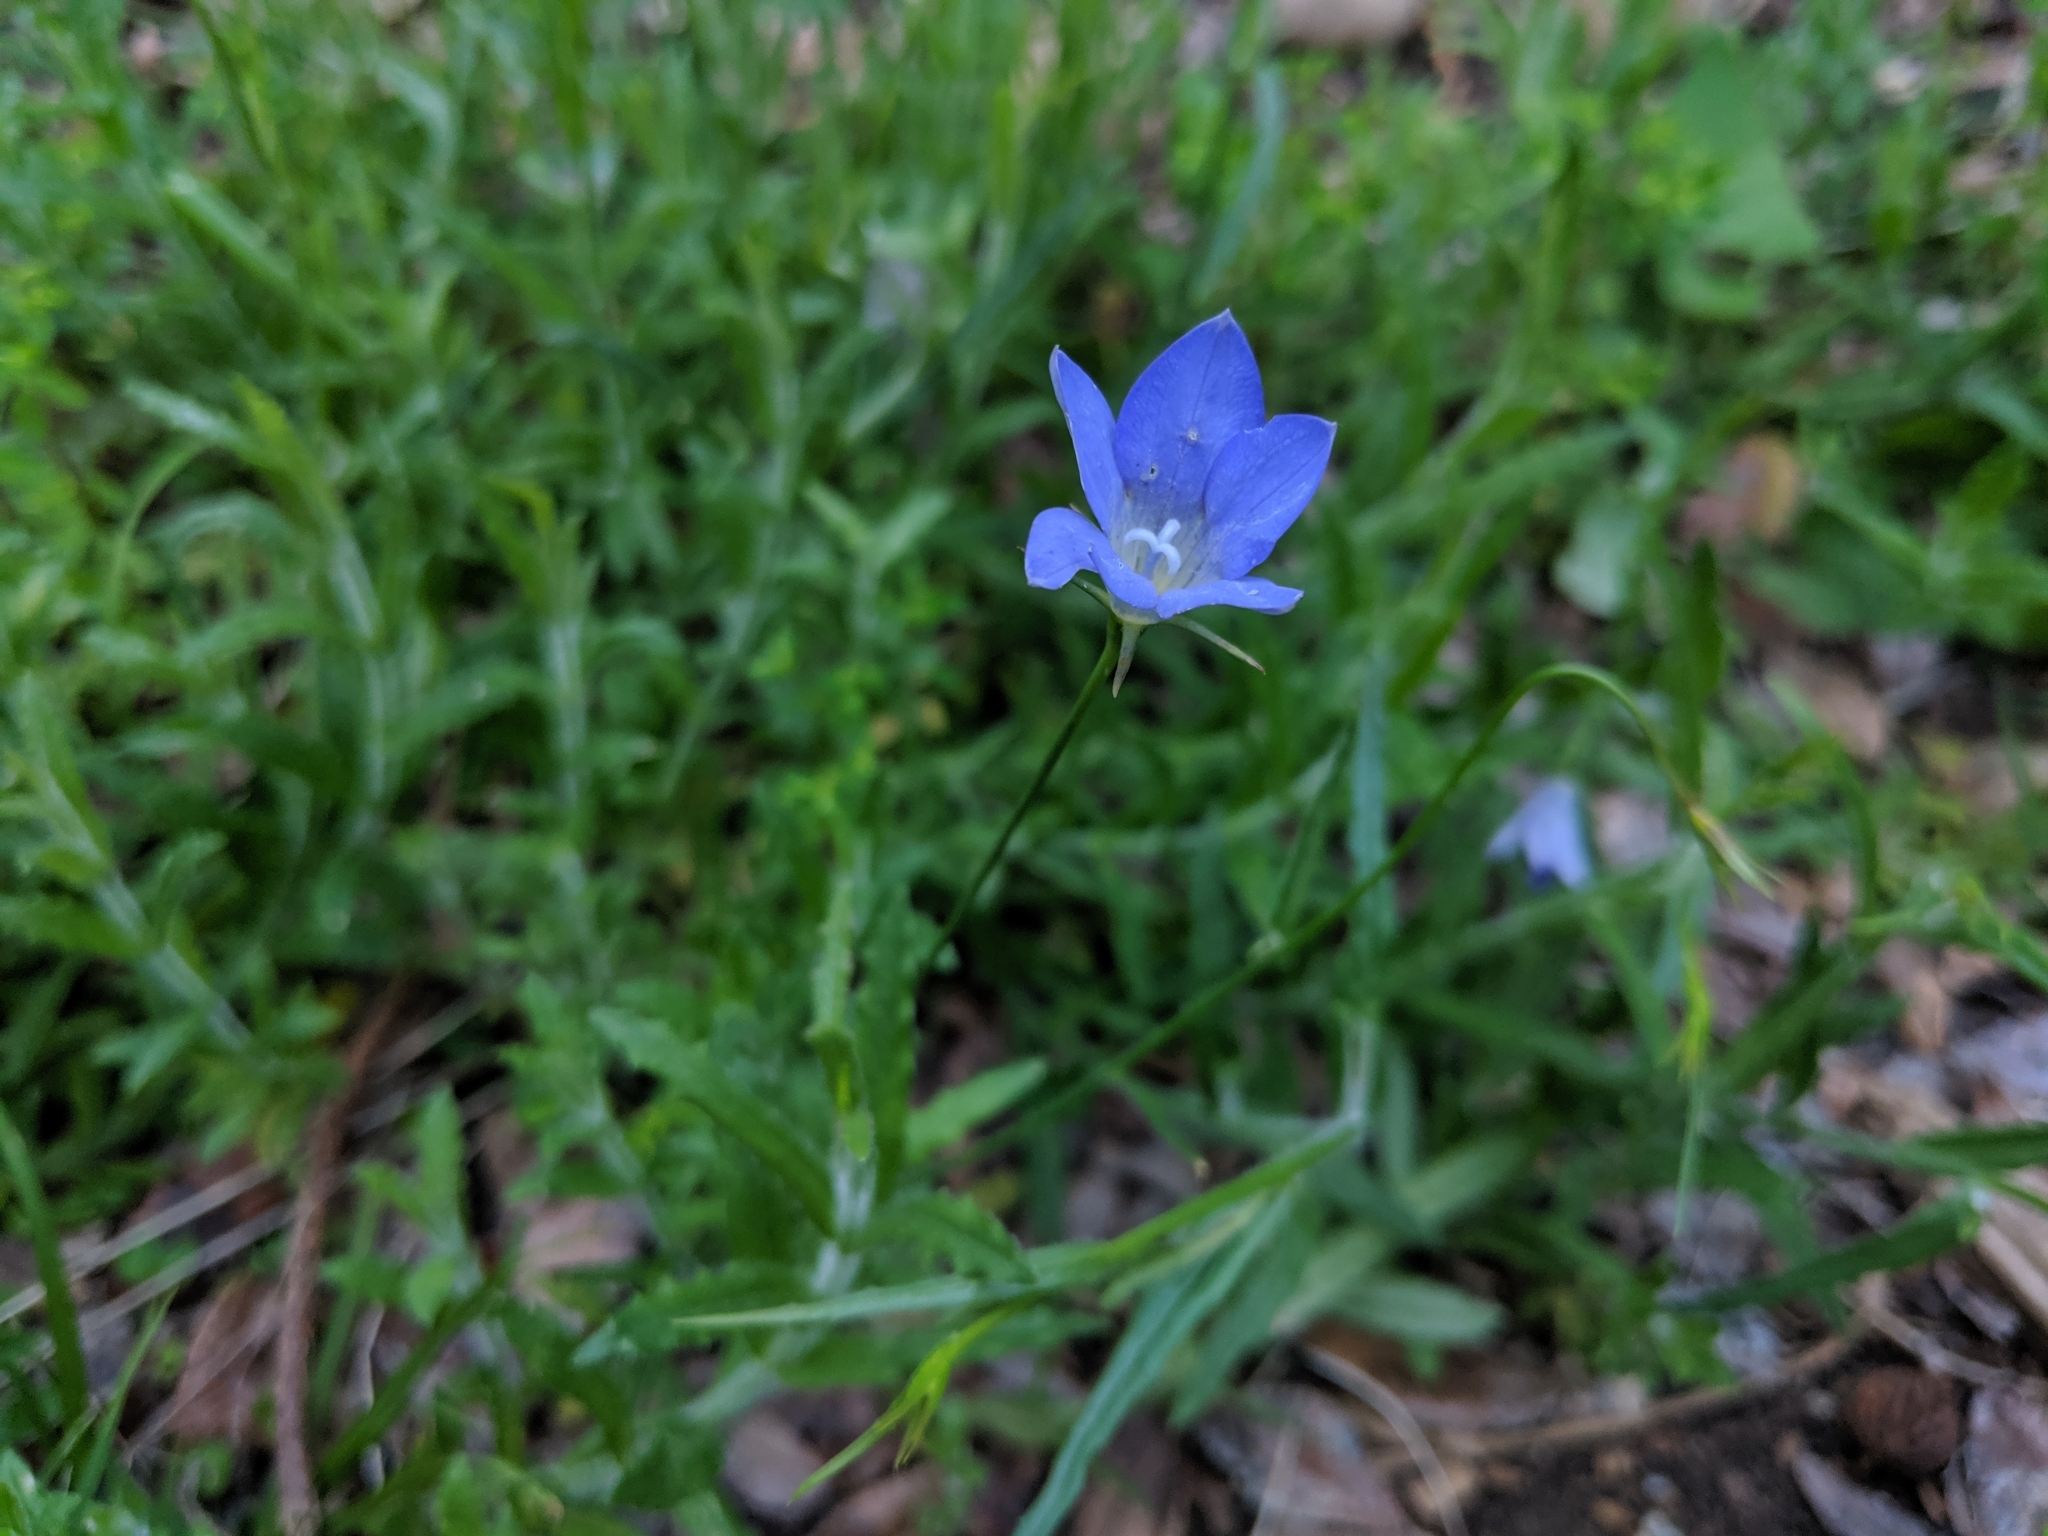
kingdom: Plantae
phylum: Tracheophyta
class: Magnoliopsida
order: Asterales
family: Campanulaceae
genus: Wahlenbergia
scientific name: Wahlenbergia stricta
